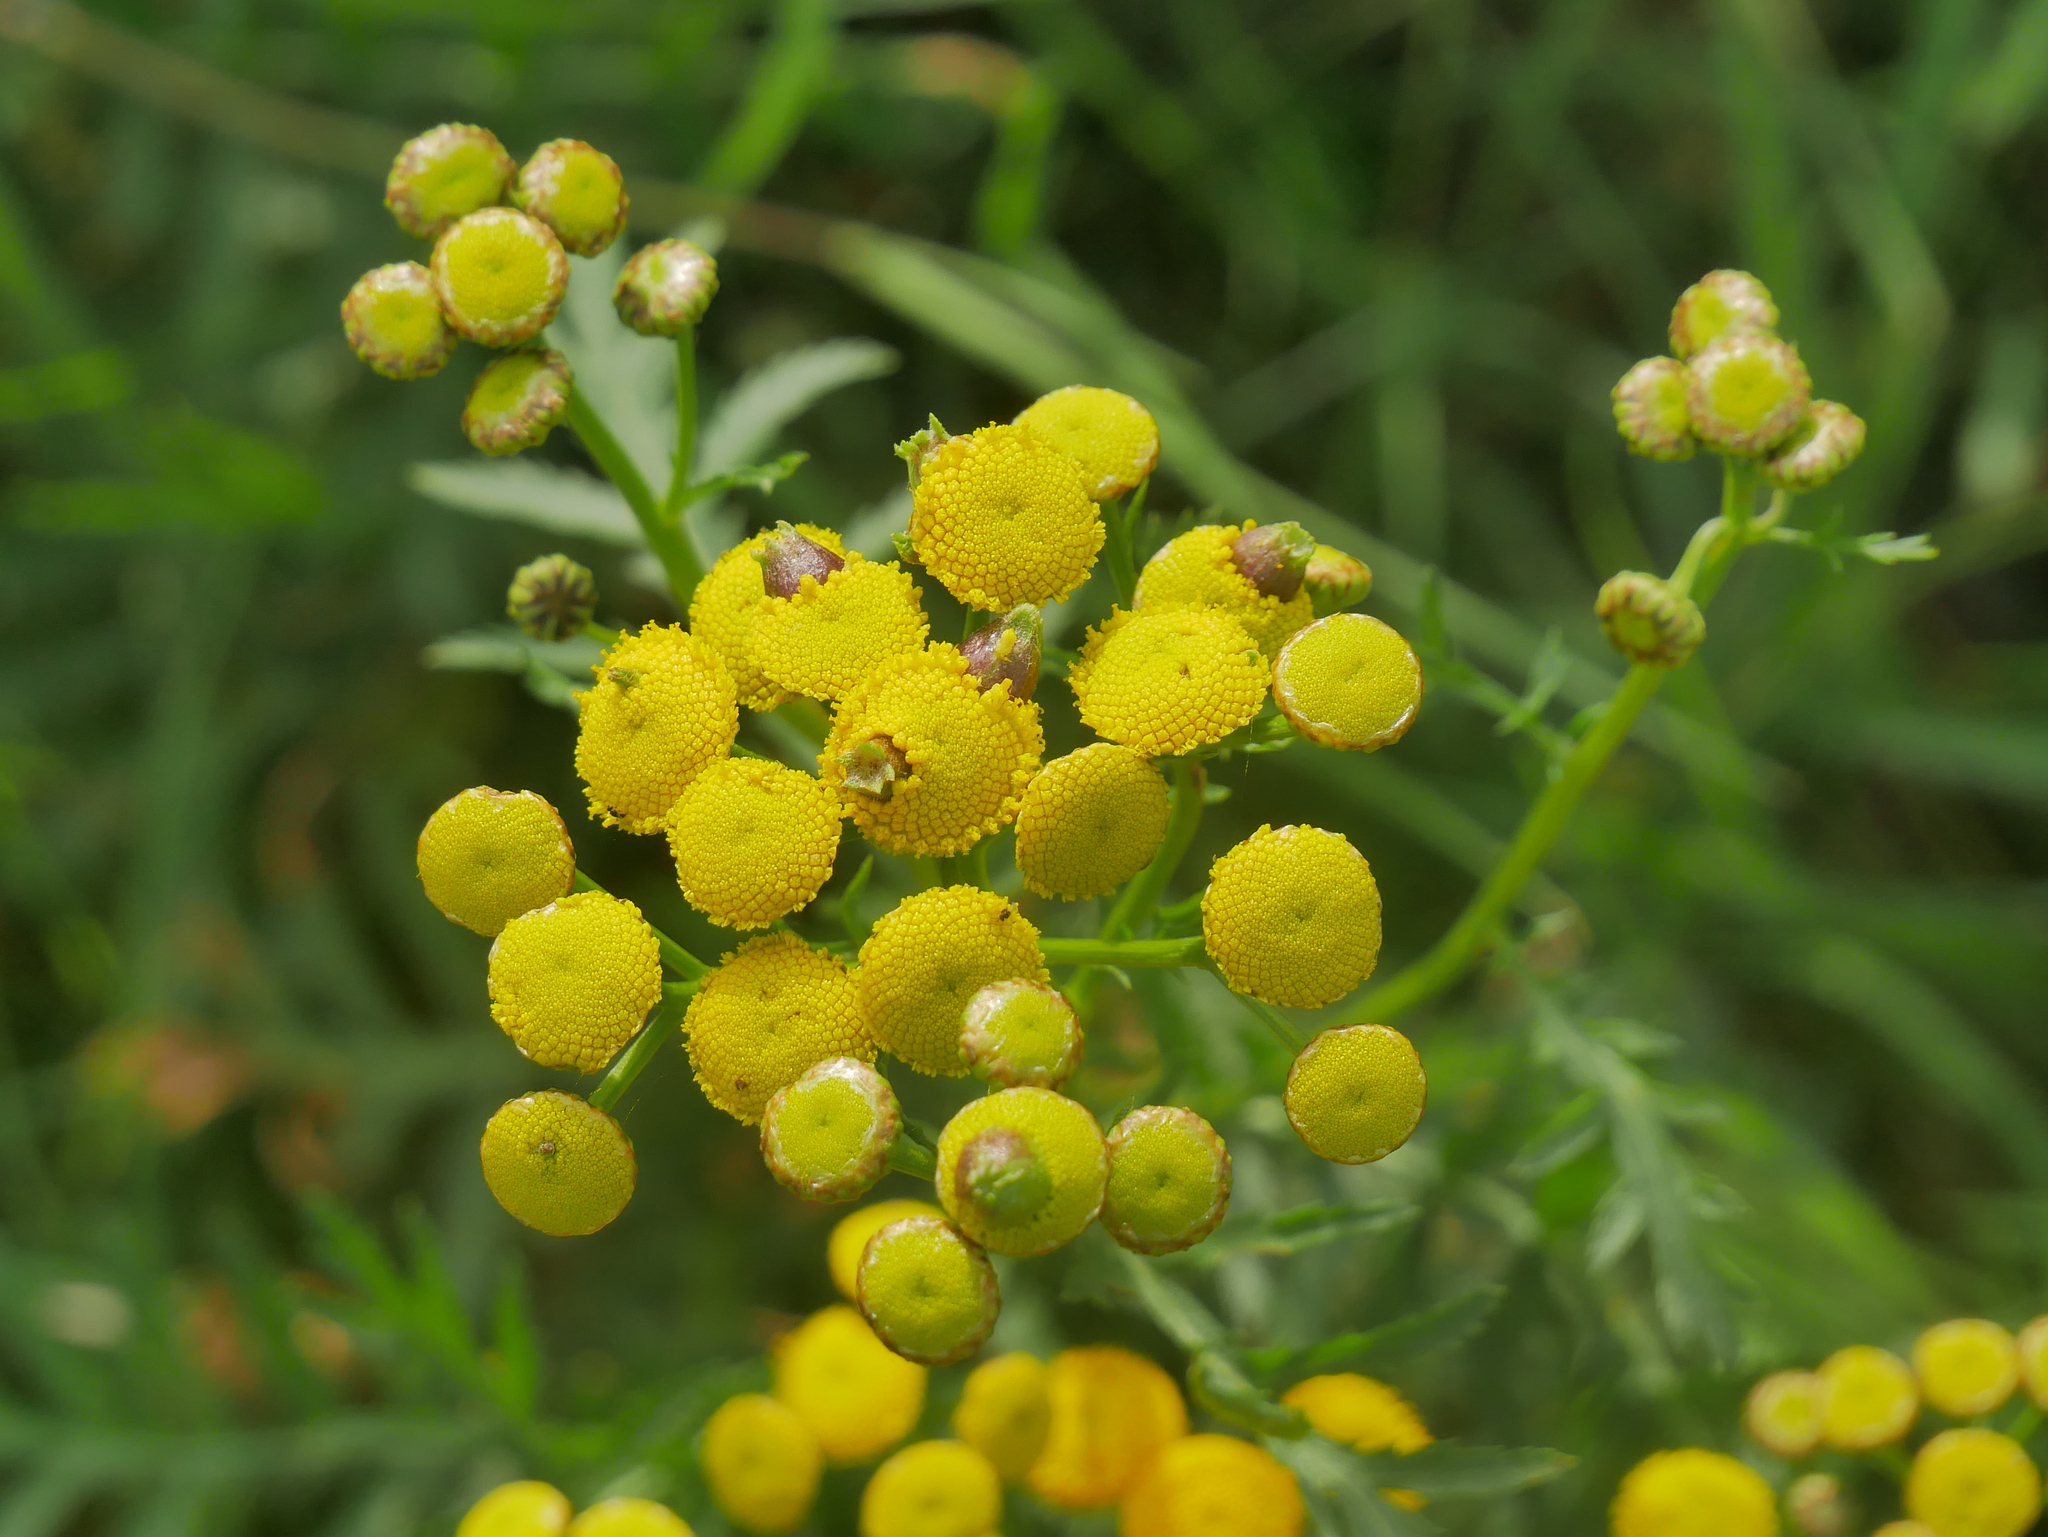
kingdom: Plantae
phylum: Tracheophyta
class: Magnoliopsida
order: Asterales
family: Asteraceae
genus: Tanacetum
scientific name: Tanacetum vulgare
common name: Common tansy
